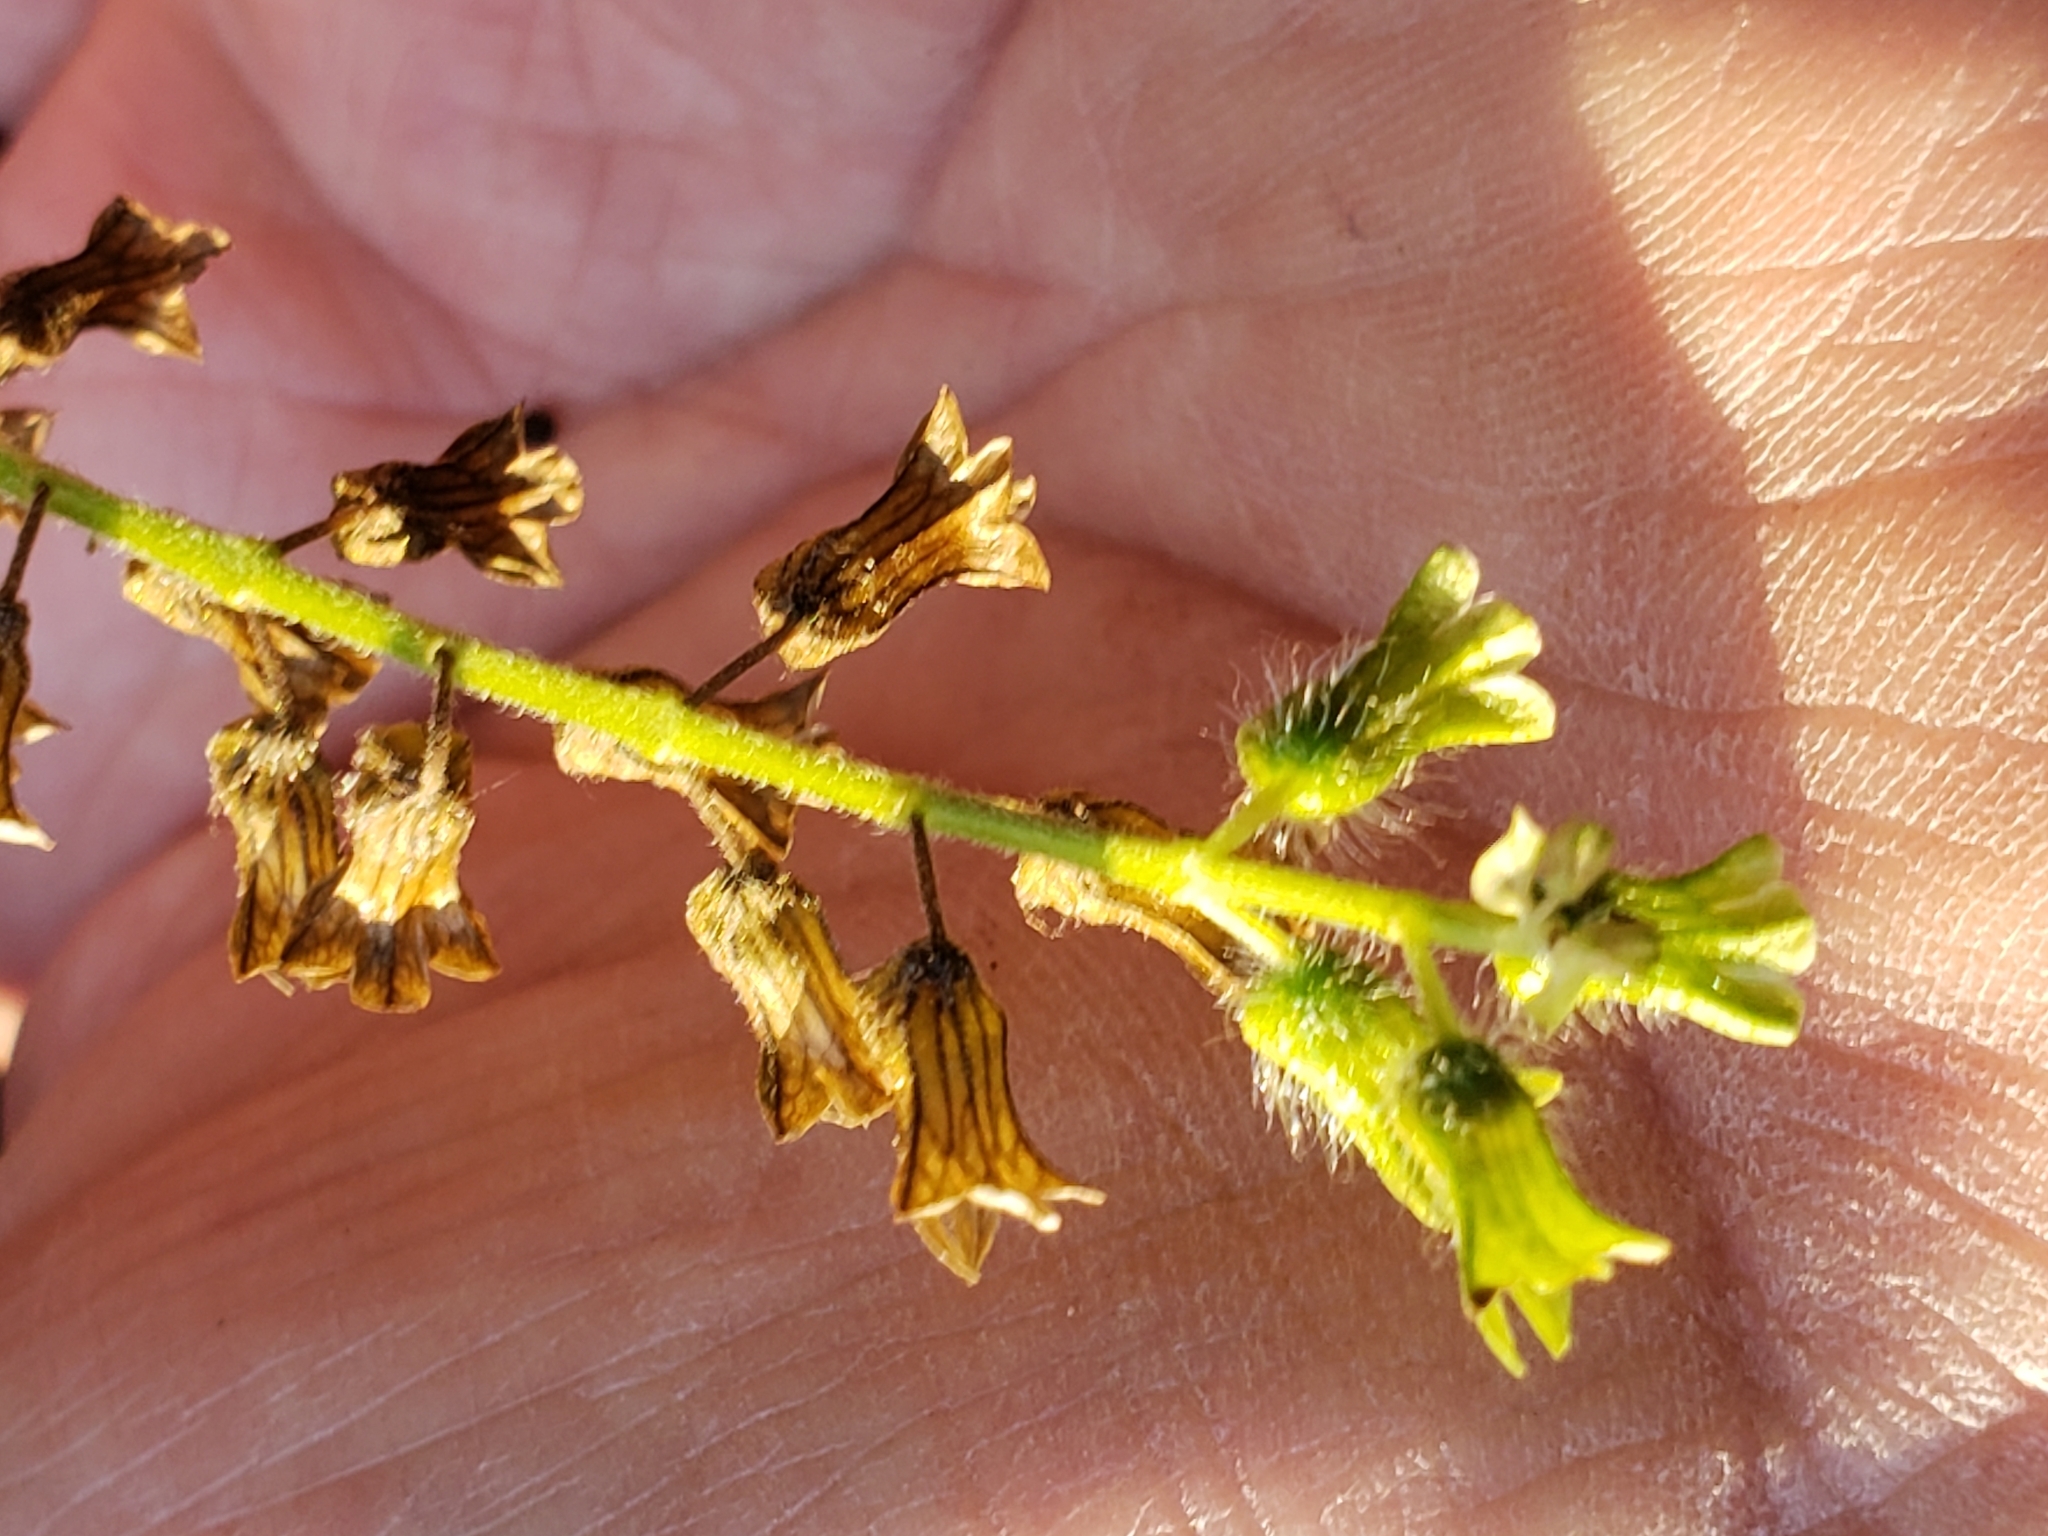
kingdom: Plantae
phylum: Tracheophyta
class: Magnoliopsida
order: Lamiales
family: Lamiaceae
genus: Perilla
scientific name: Perilla frutescens
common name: Perilla
